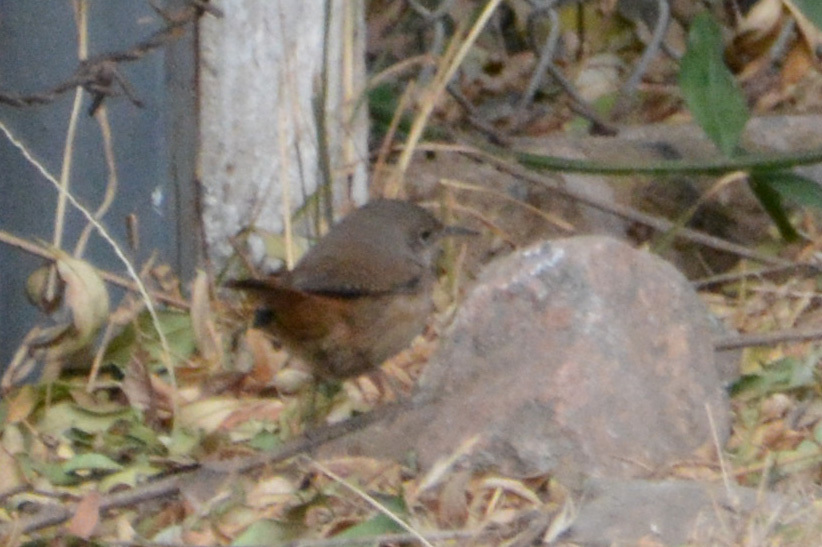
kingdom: Animalia
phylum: Chordata
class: Aves
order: Passeriformes
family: Troglodytidae
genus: Troglodytes
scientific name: Troglodytes aedon
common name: House wren
